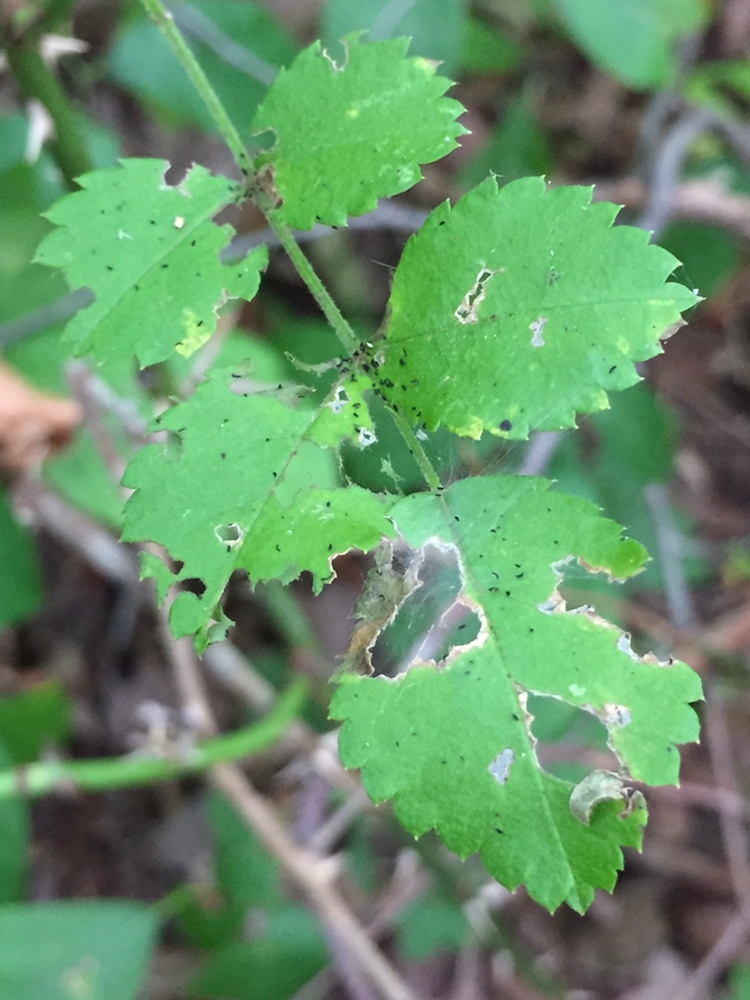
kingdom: Plantae
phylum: Tracheophyta
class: Magnoliopsida
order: Rosales
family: Rosaceae
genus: Rosa
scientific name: Rosa multiflora
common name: Multiflora rose
